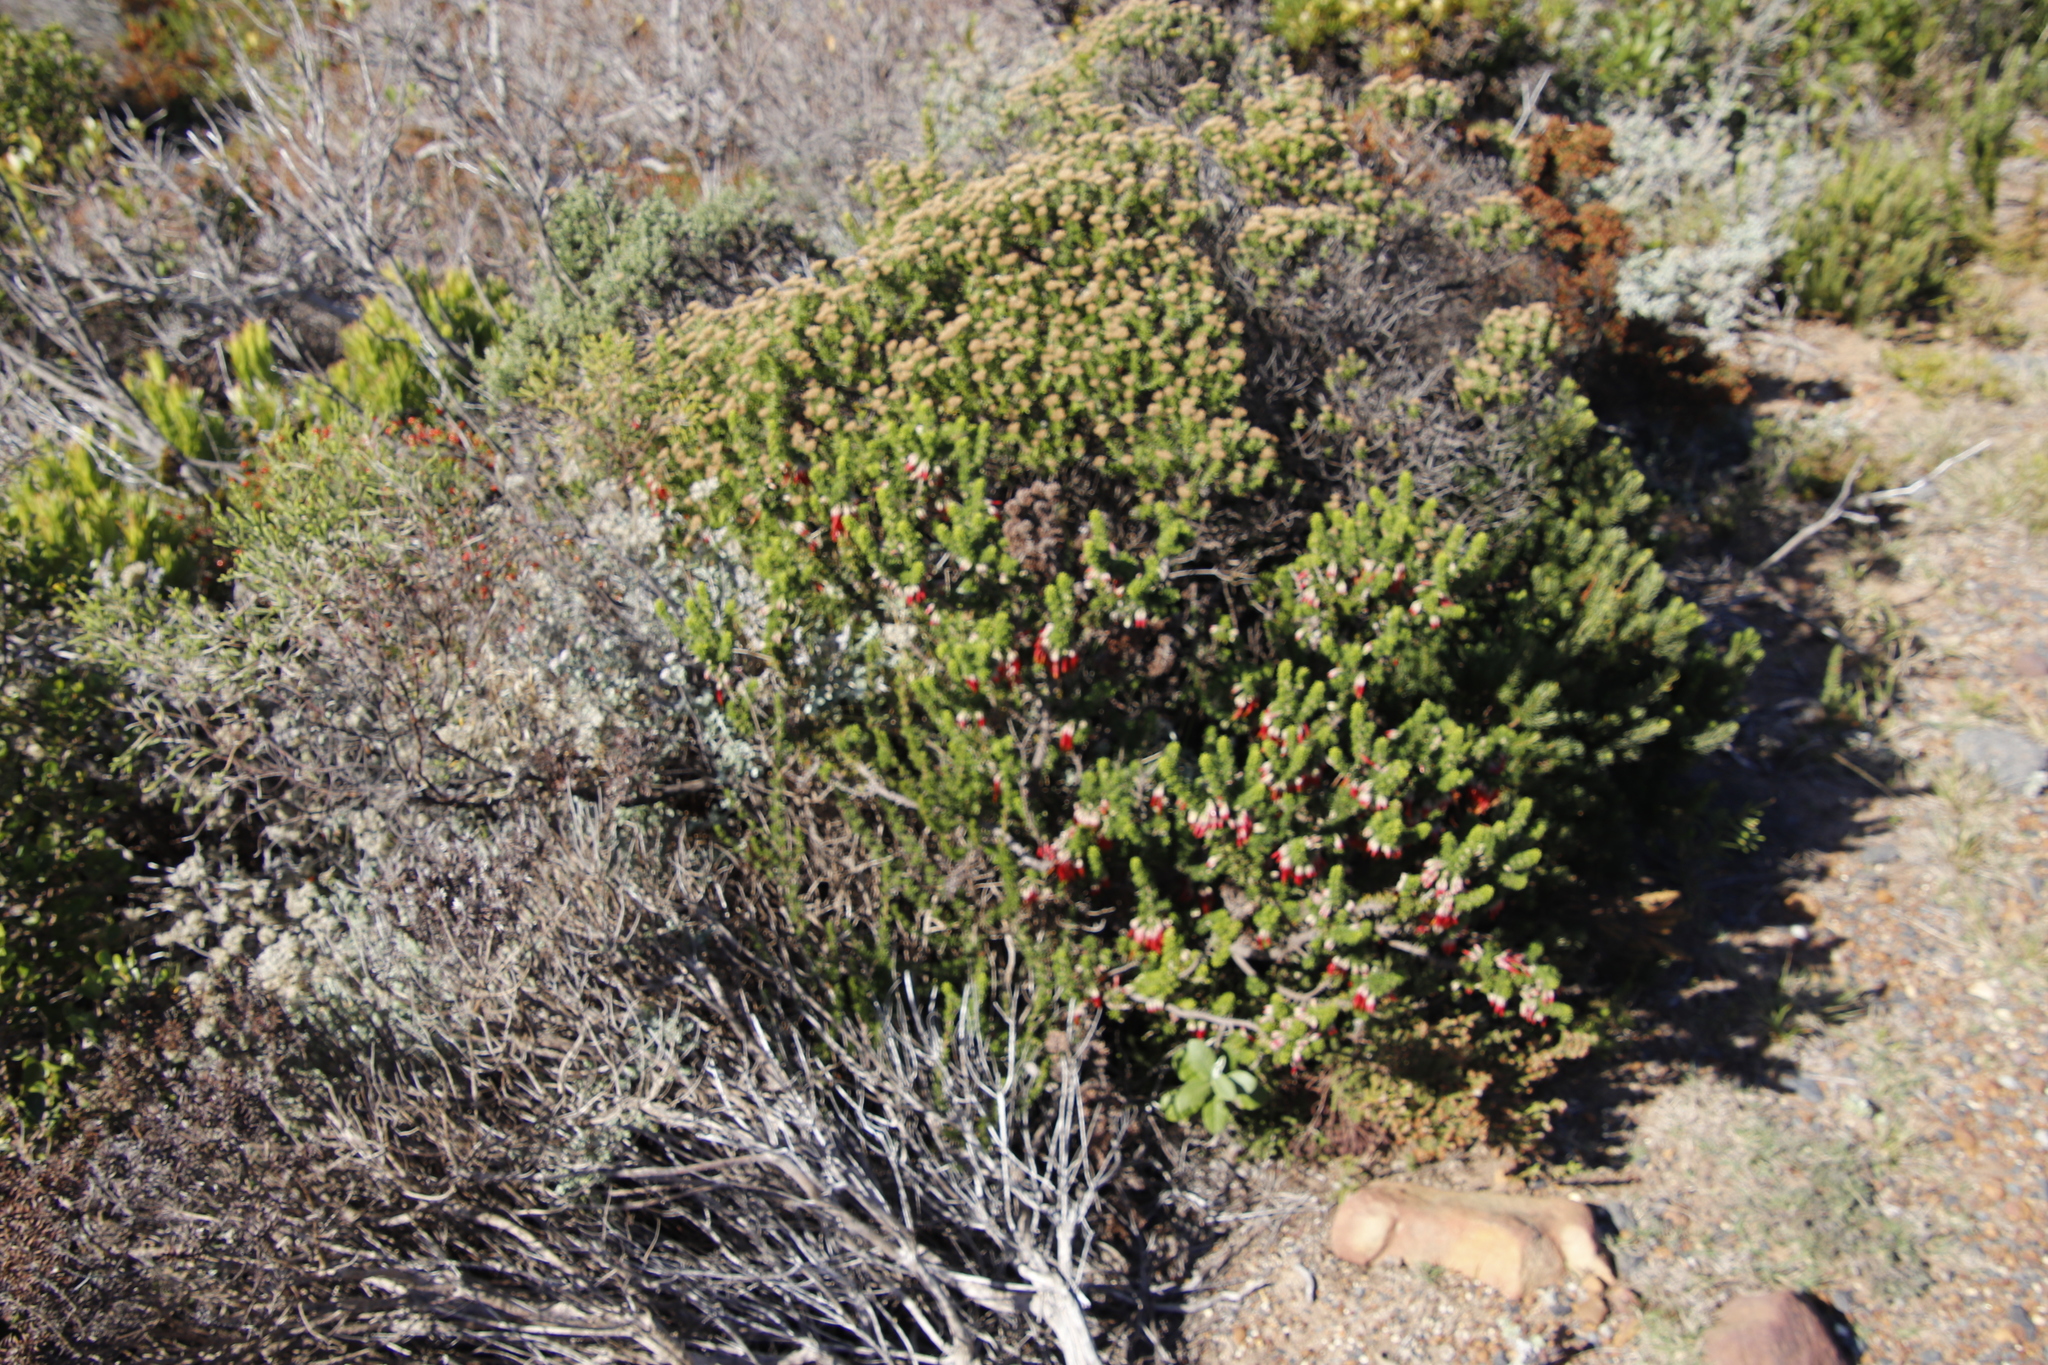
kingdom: Plantae
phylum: Tracheophyta
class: Magnoliopsida
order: Ericales
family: Ericaceae
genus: Erica
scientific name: Erica coccinea
